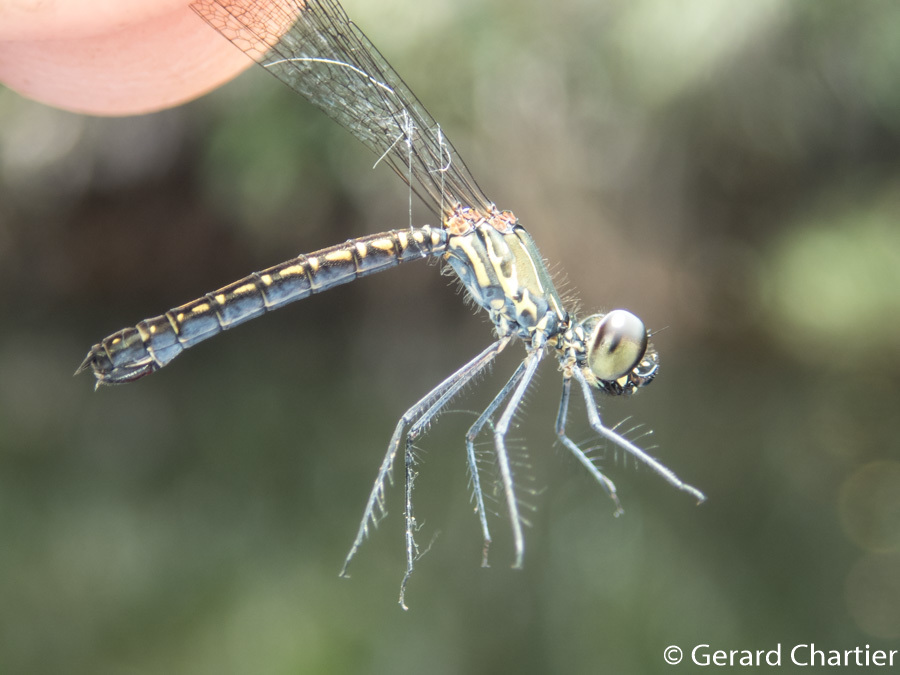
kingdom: Animalia
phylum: Arthropoda
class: Insecta
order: Odonata
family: Chlorocyphidae
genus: Libellago
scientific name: Libellago hyalina
